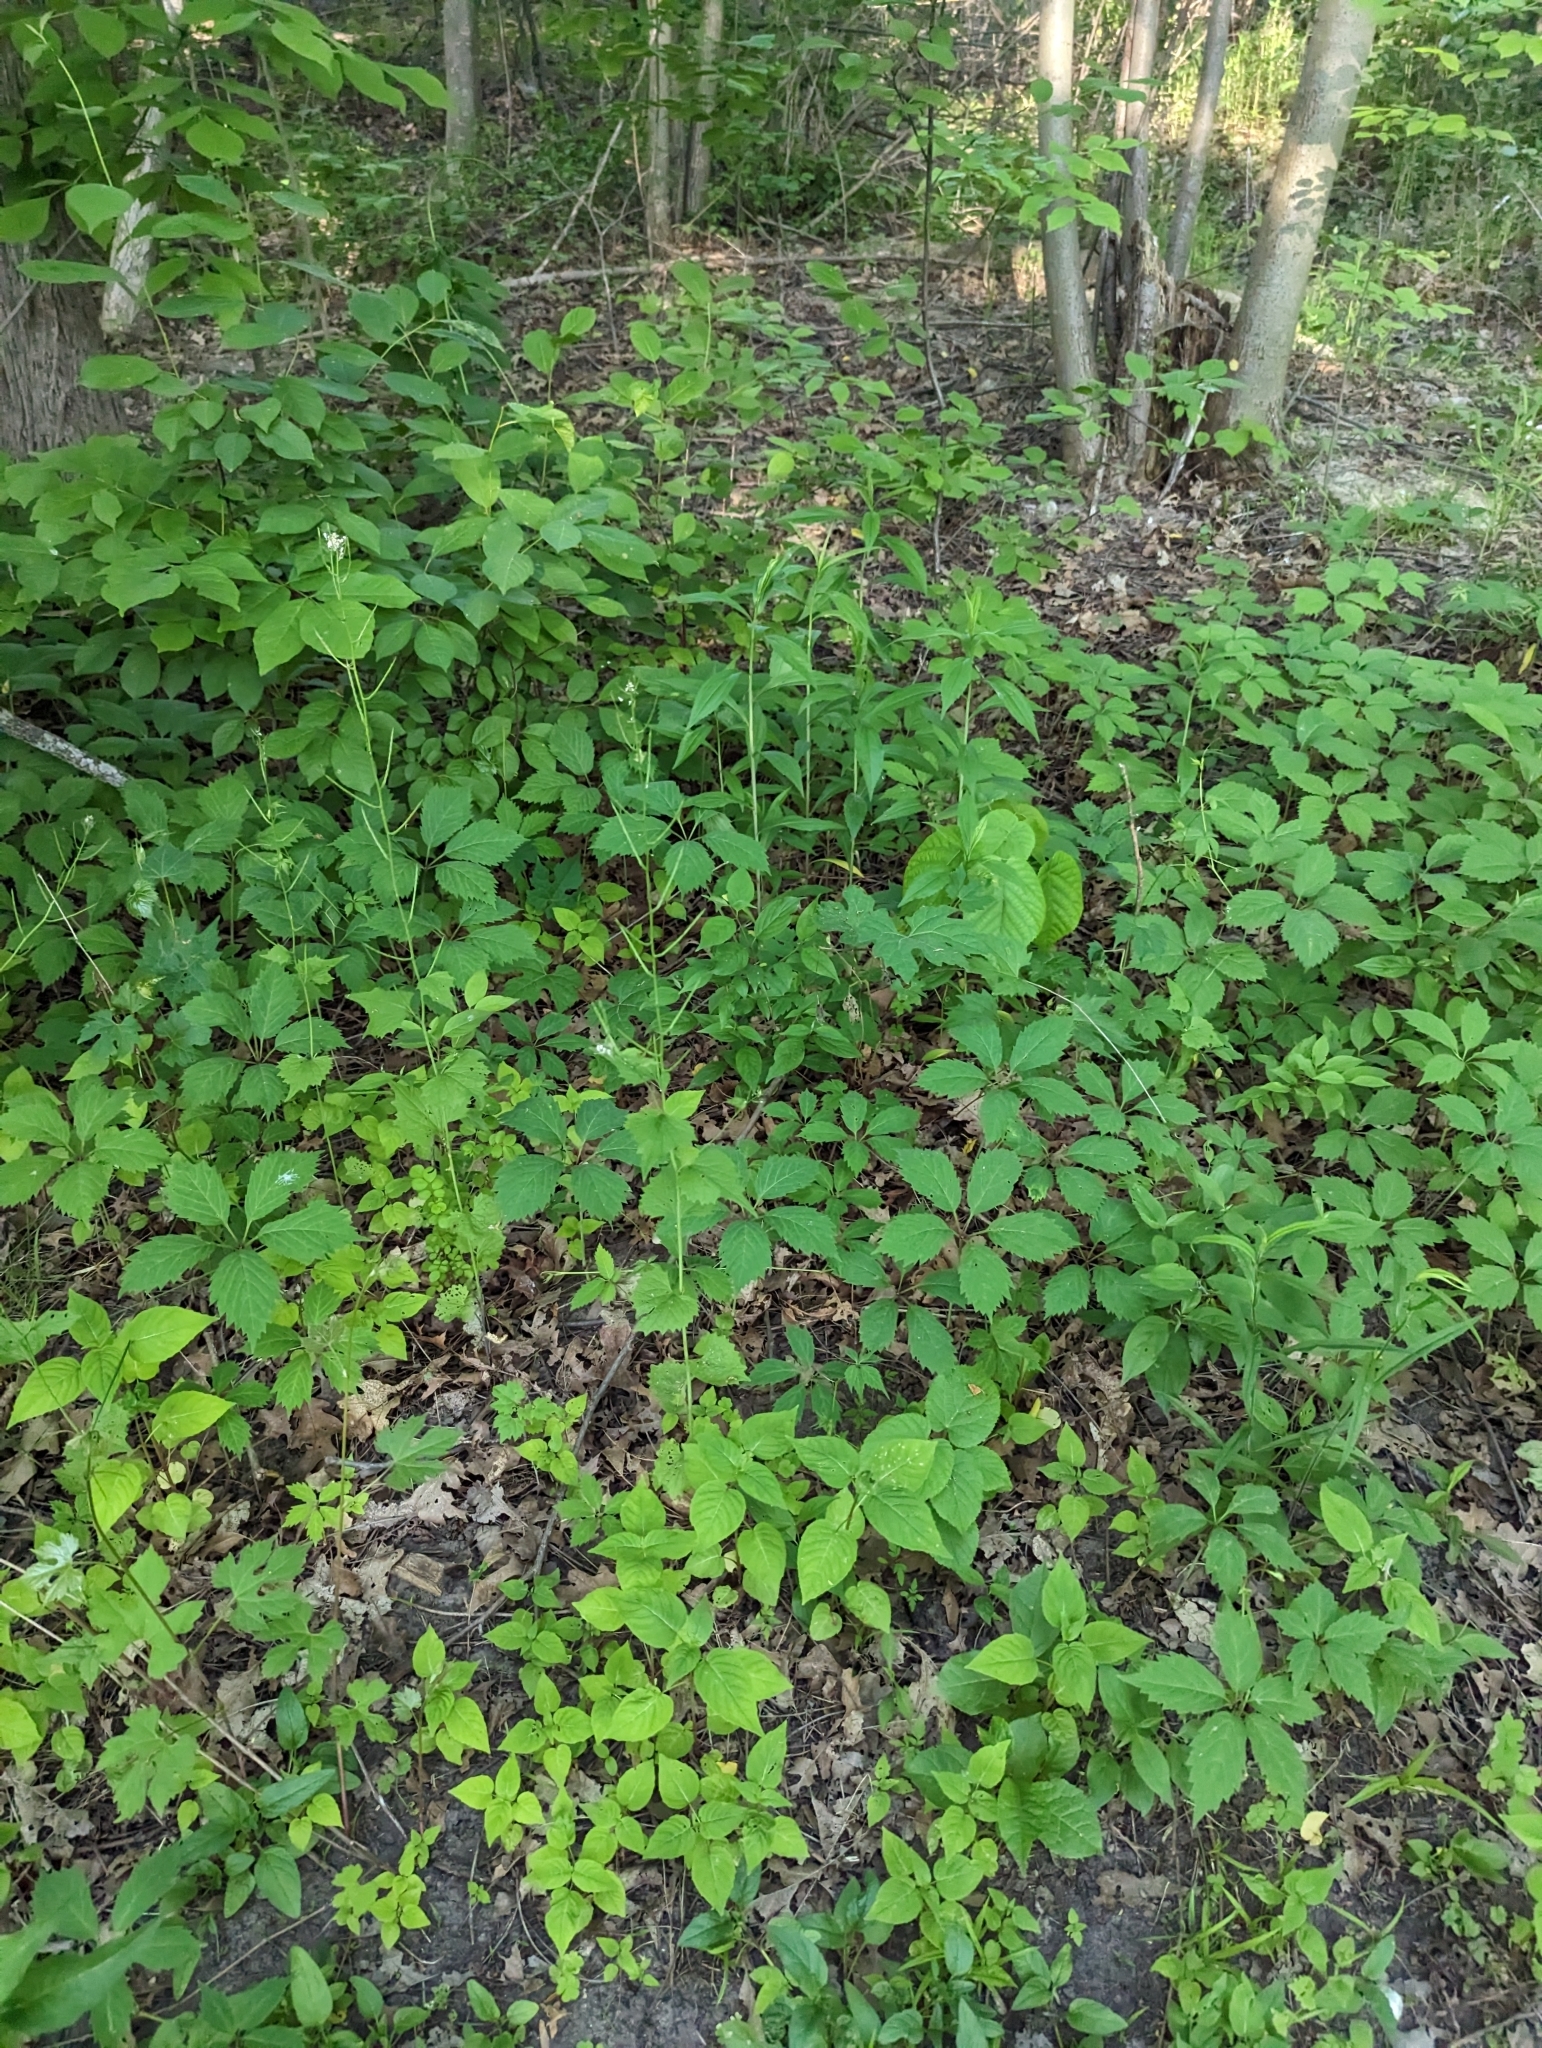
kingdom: Plantae
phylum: Tracheophyta
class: Magnoliopsida
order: Brassicales
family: Brassicaceae
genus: Alliaria
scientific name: Alliaria petiolata
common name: Garlic mustard
